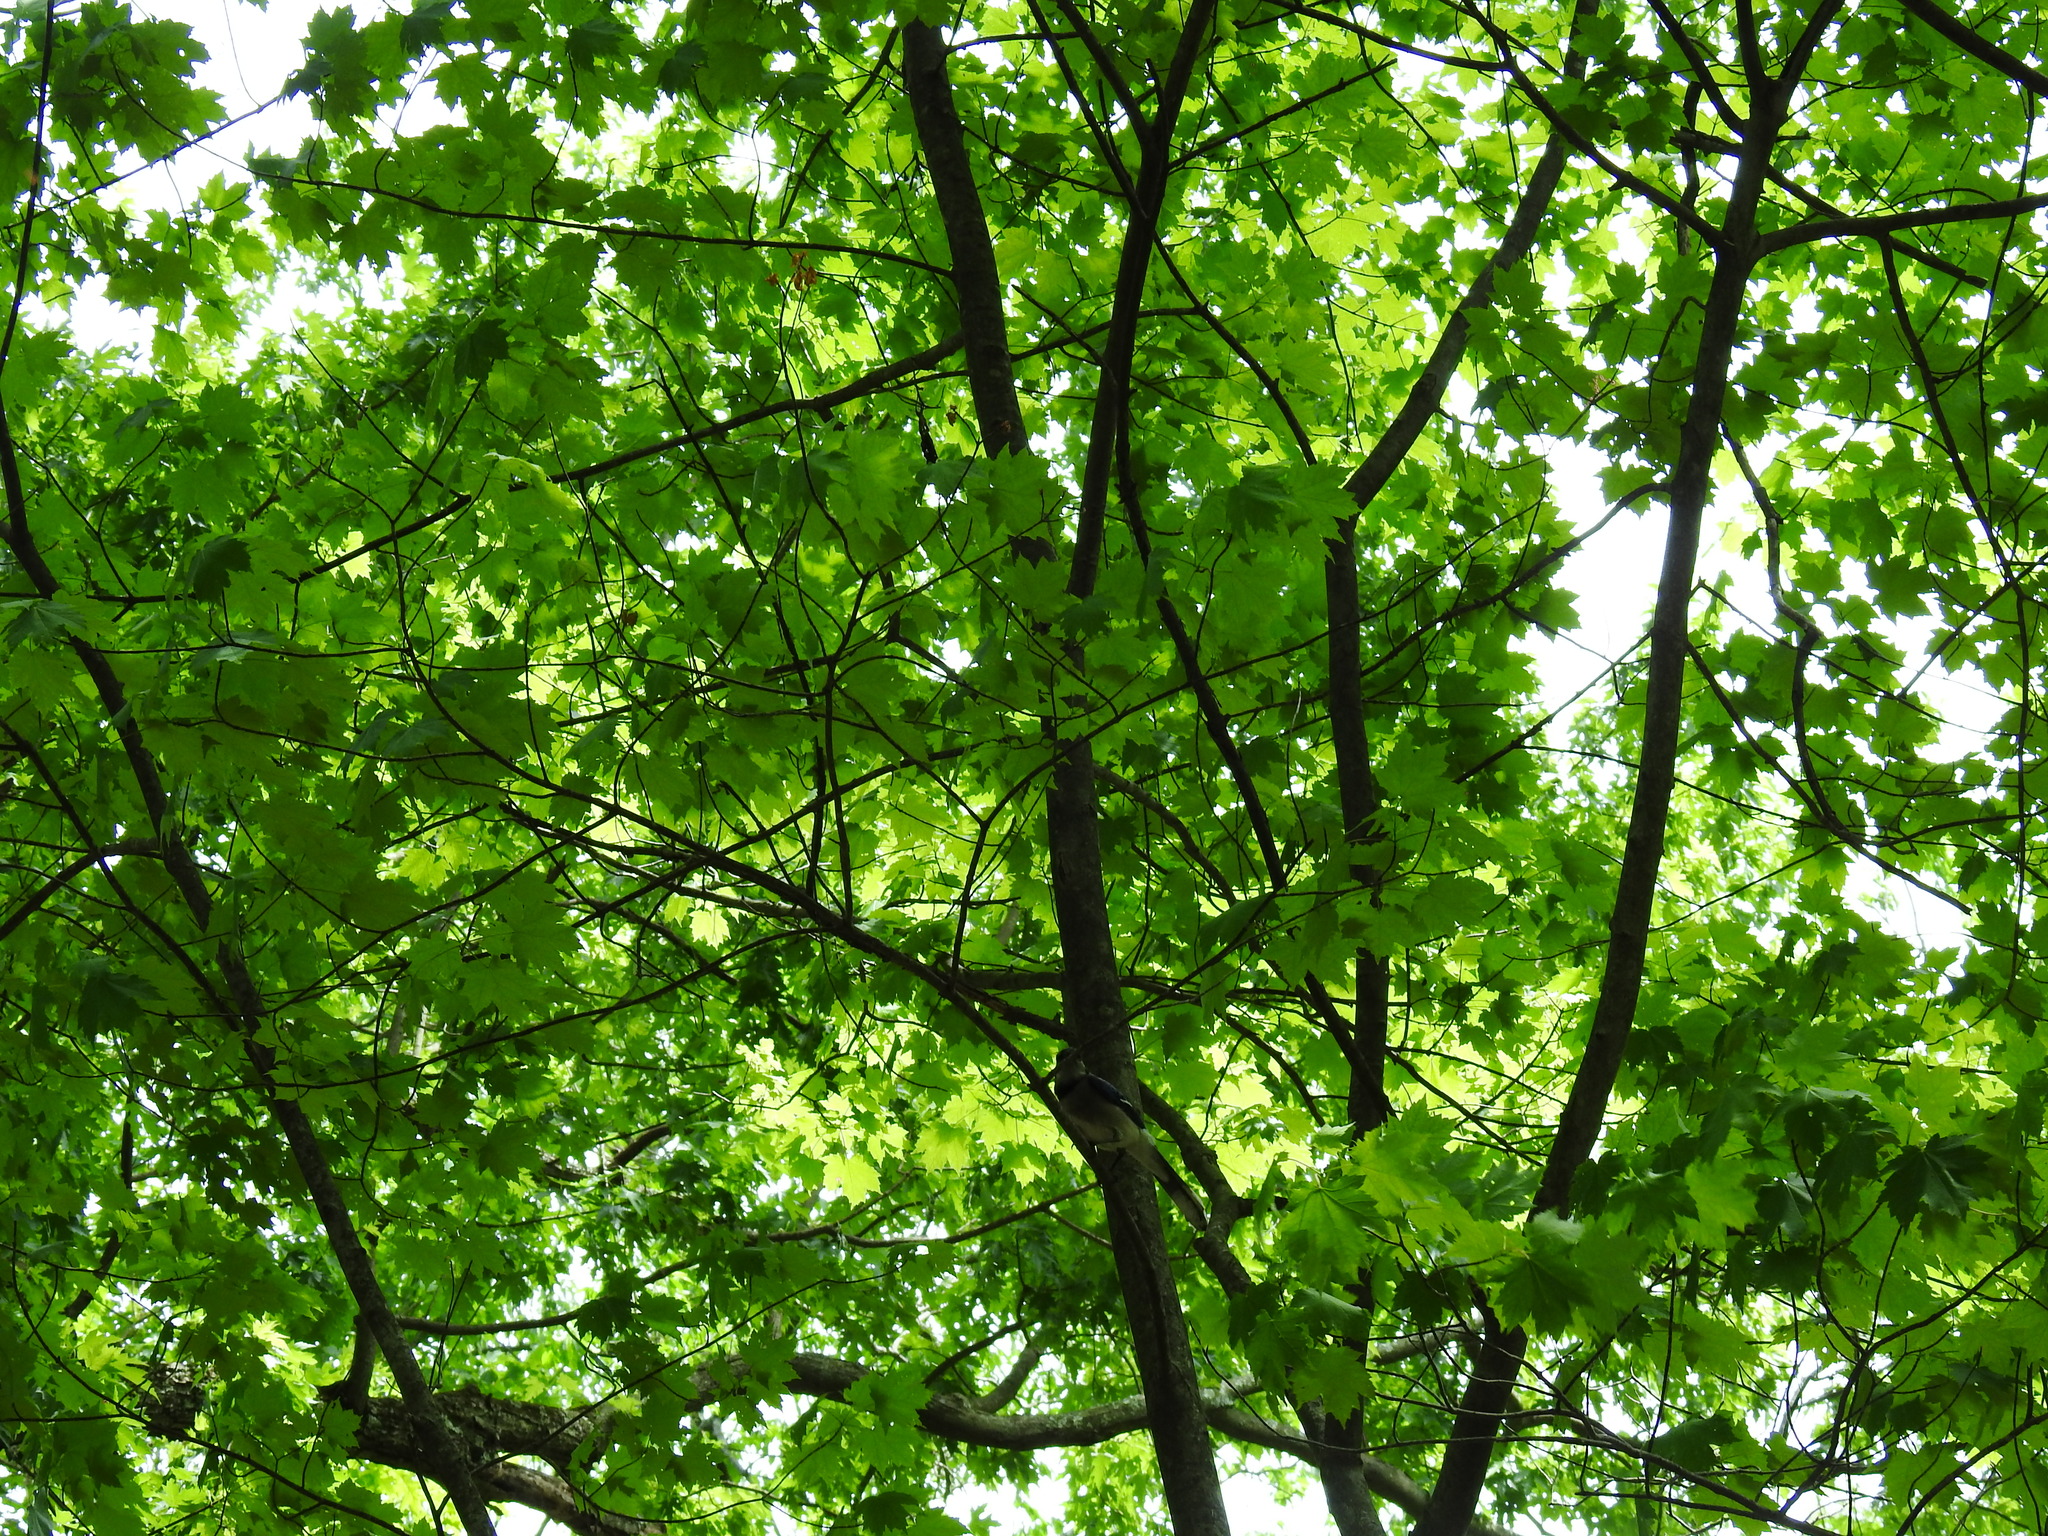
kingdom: Animalia
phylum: Chordata
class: Aves
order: Passeriformes
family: Corvidae
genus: Cyanocitta
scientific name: Cyanocitta cristata
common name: Blue jay
